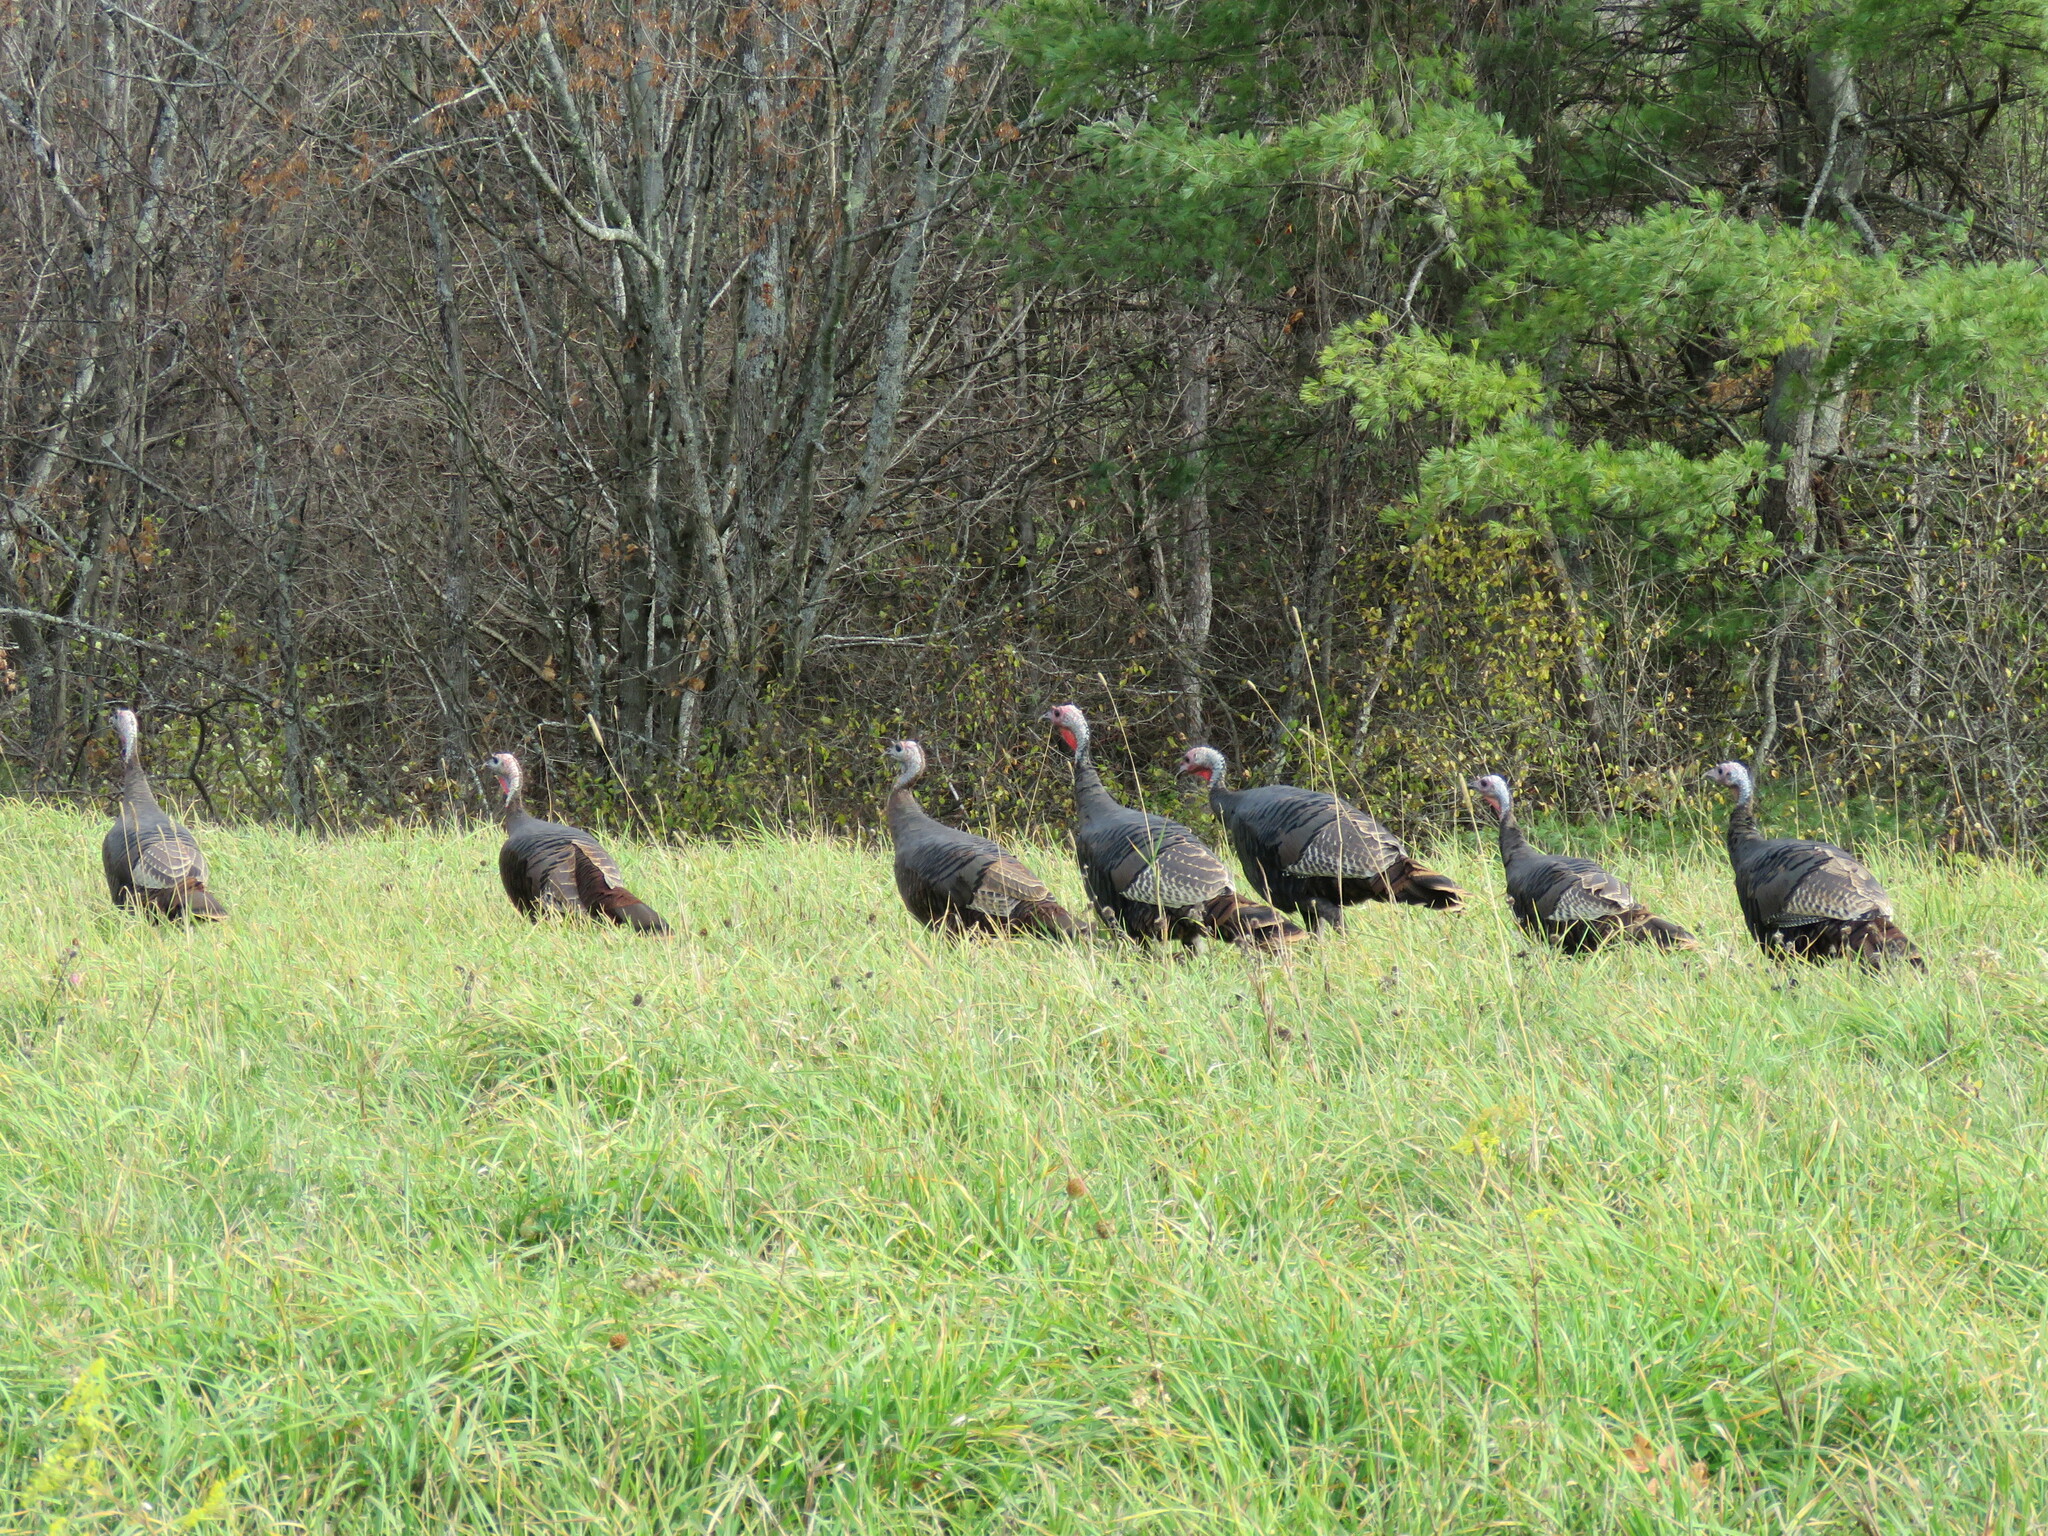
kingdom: Animalia
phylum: Chordata
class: Aves
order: Galliformes
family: Phasianidae
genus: Meleagris
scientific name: Meleagris gallopavo
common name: Wild turkey
